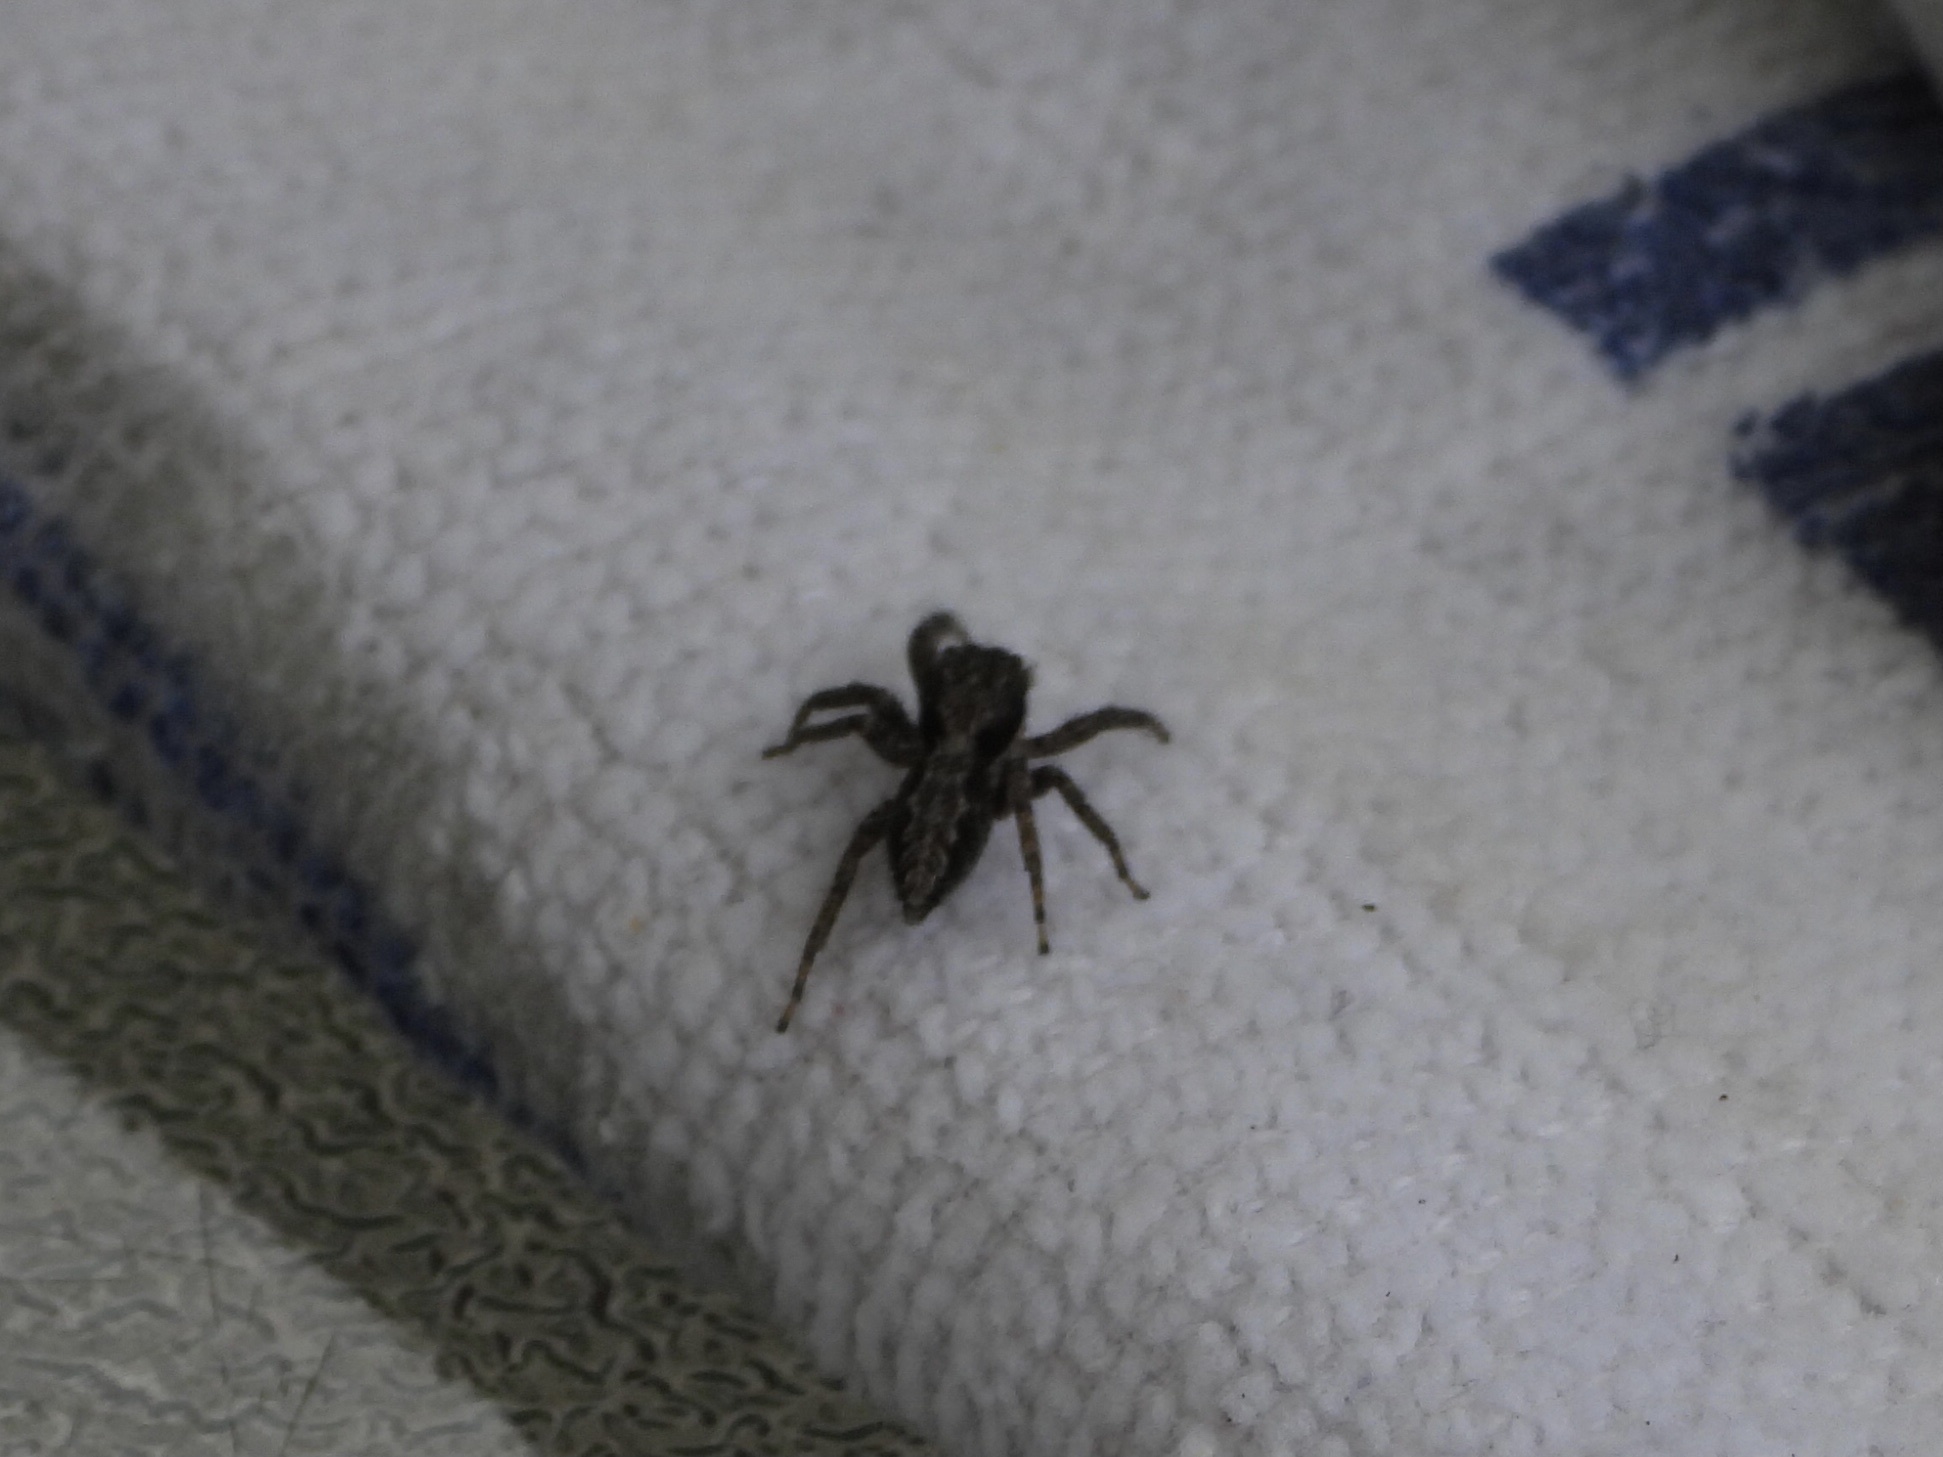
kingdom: Animalia
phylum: Arthropoda
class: Arachnida
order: Araneae
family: Salticidae
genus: Platycryptus
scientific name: Platycryptus californicus
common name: Jumping spiders
